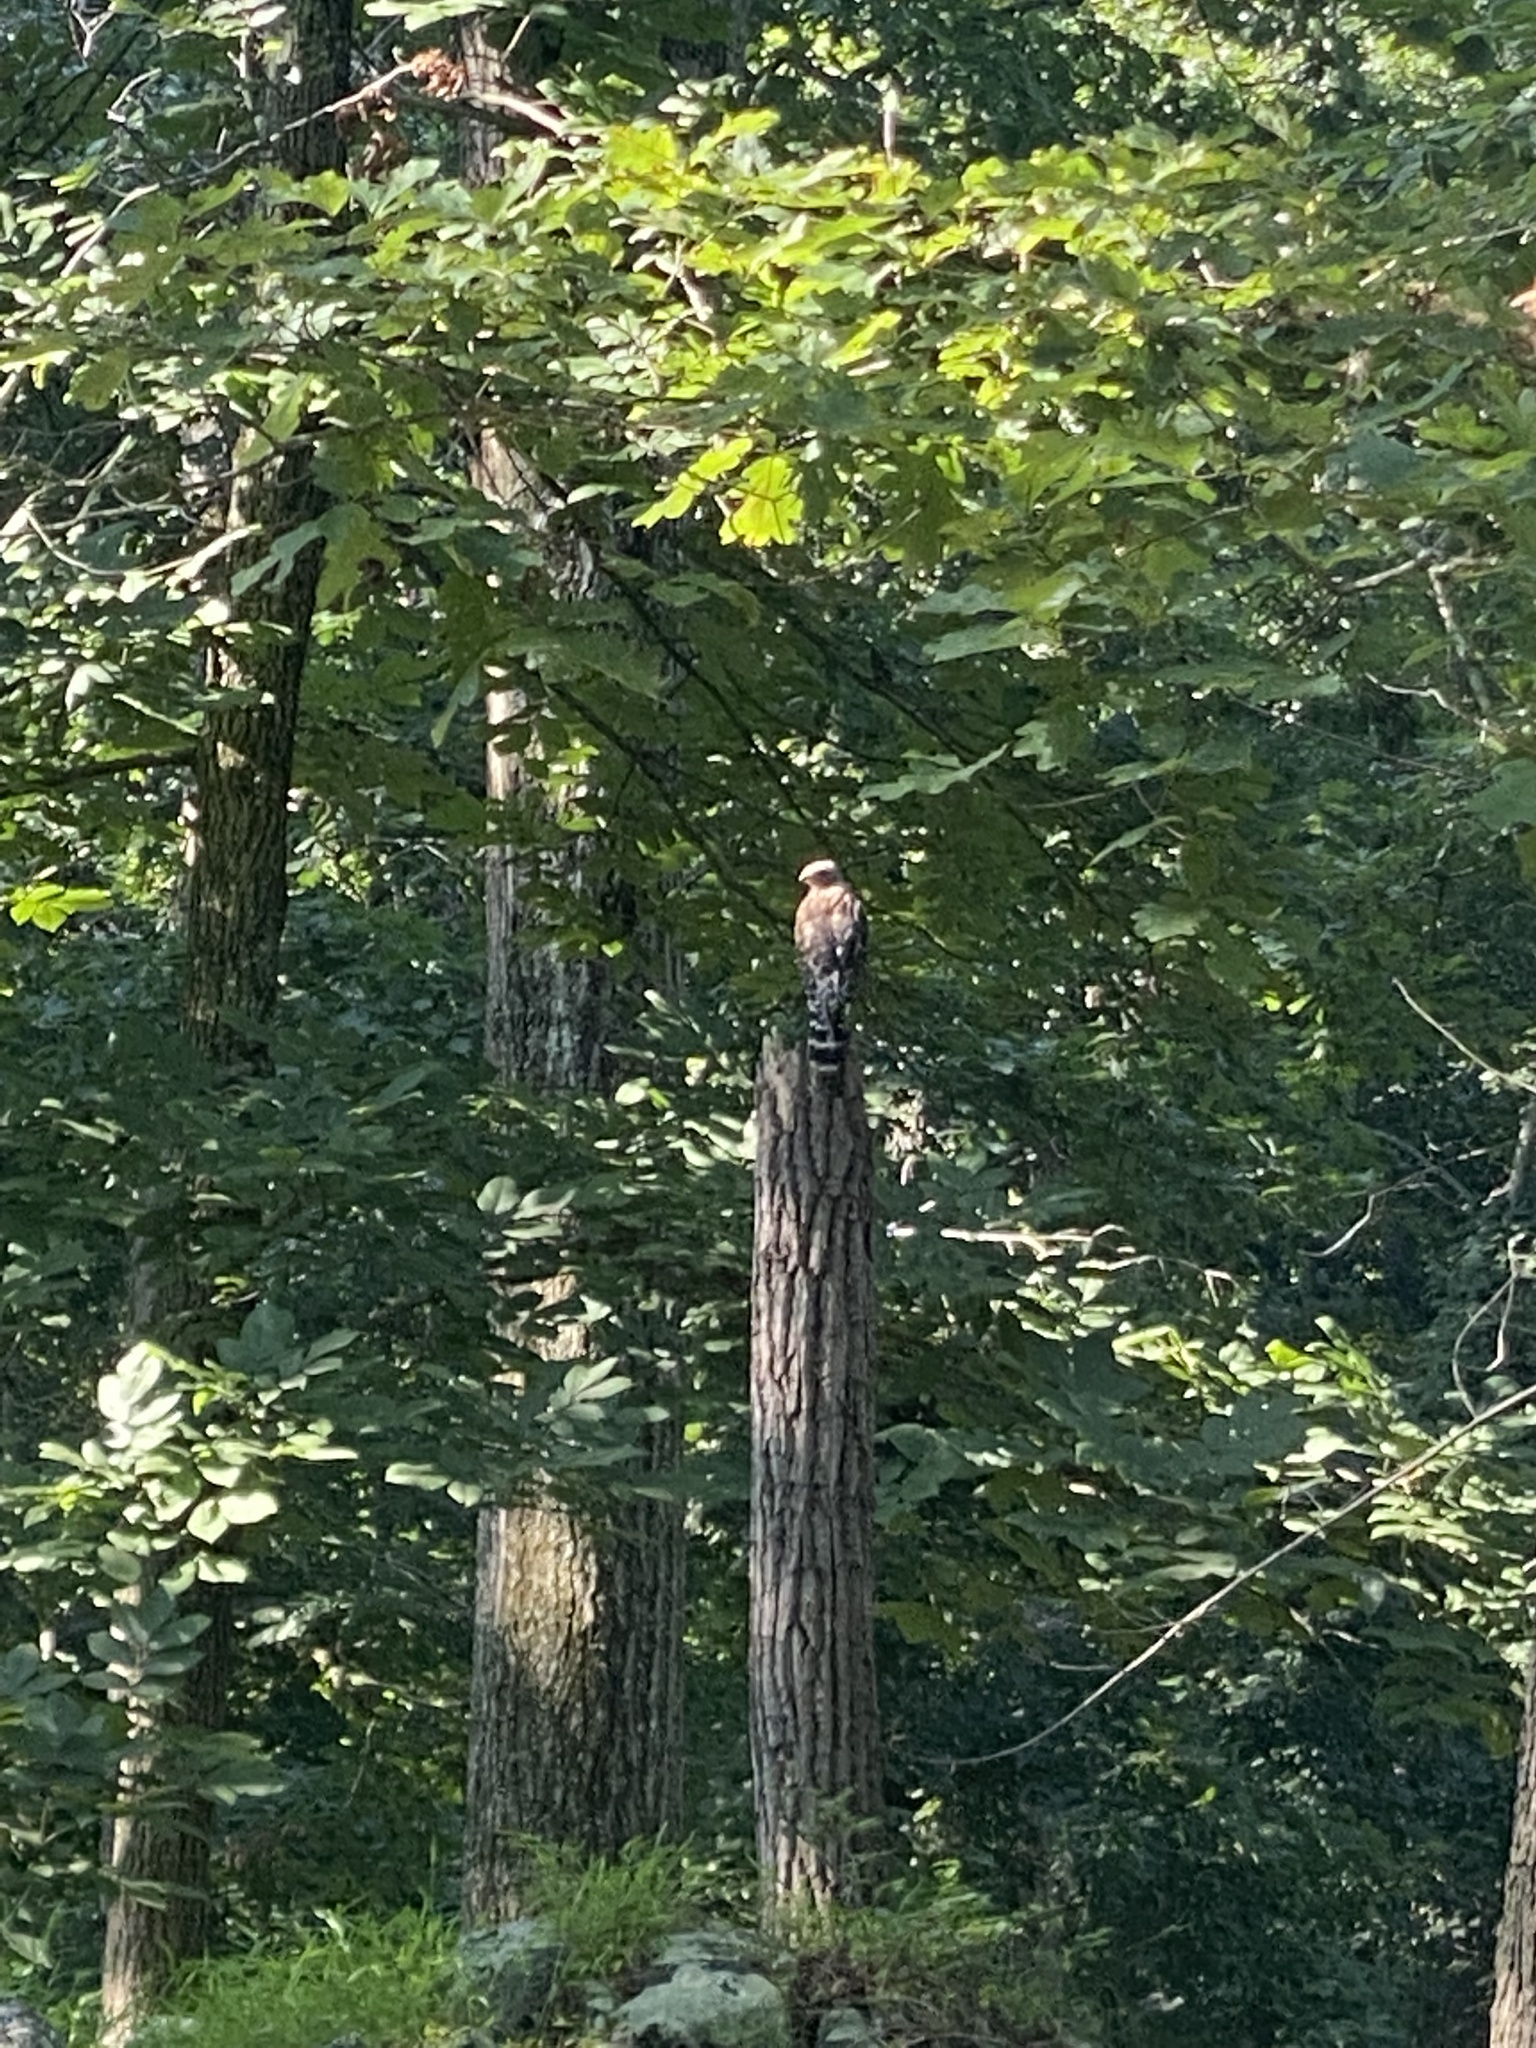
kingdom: Animalia
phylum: Chordata
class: Aves
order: Accipitriformes
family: Accipitridae
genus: Buteo
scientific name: Buteo lineatus
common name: Red-shouldered hawk
